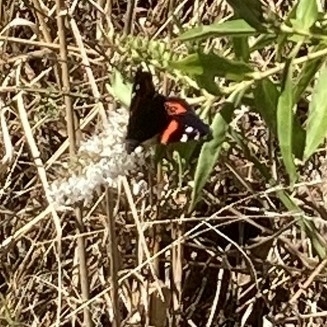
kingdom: Animalia
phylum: Arthropoda
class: Insecta
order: Lepidoptera
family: Nymphalidae
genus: Vanessa
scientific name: Vanessa gonerilla
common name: New zealand red admiral
